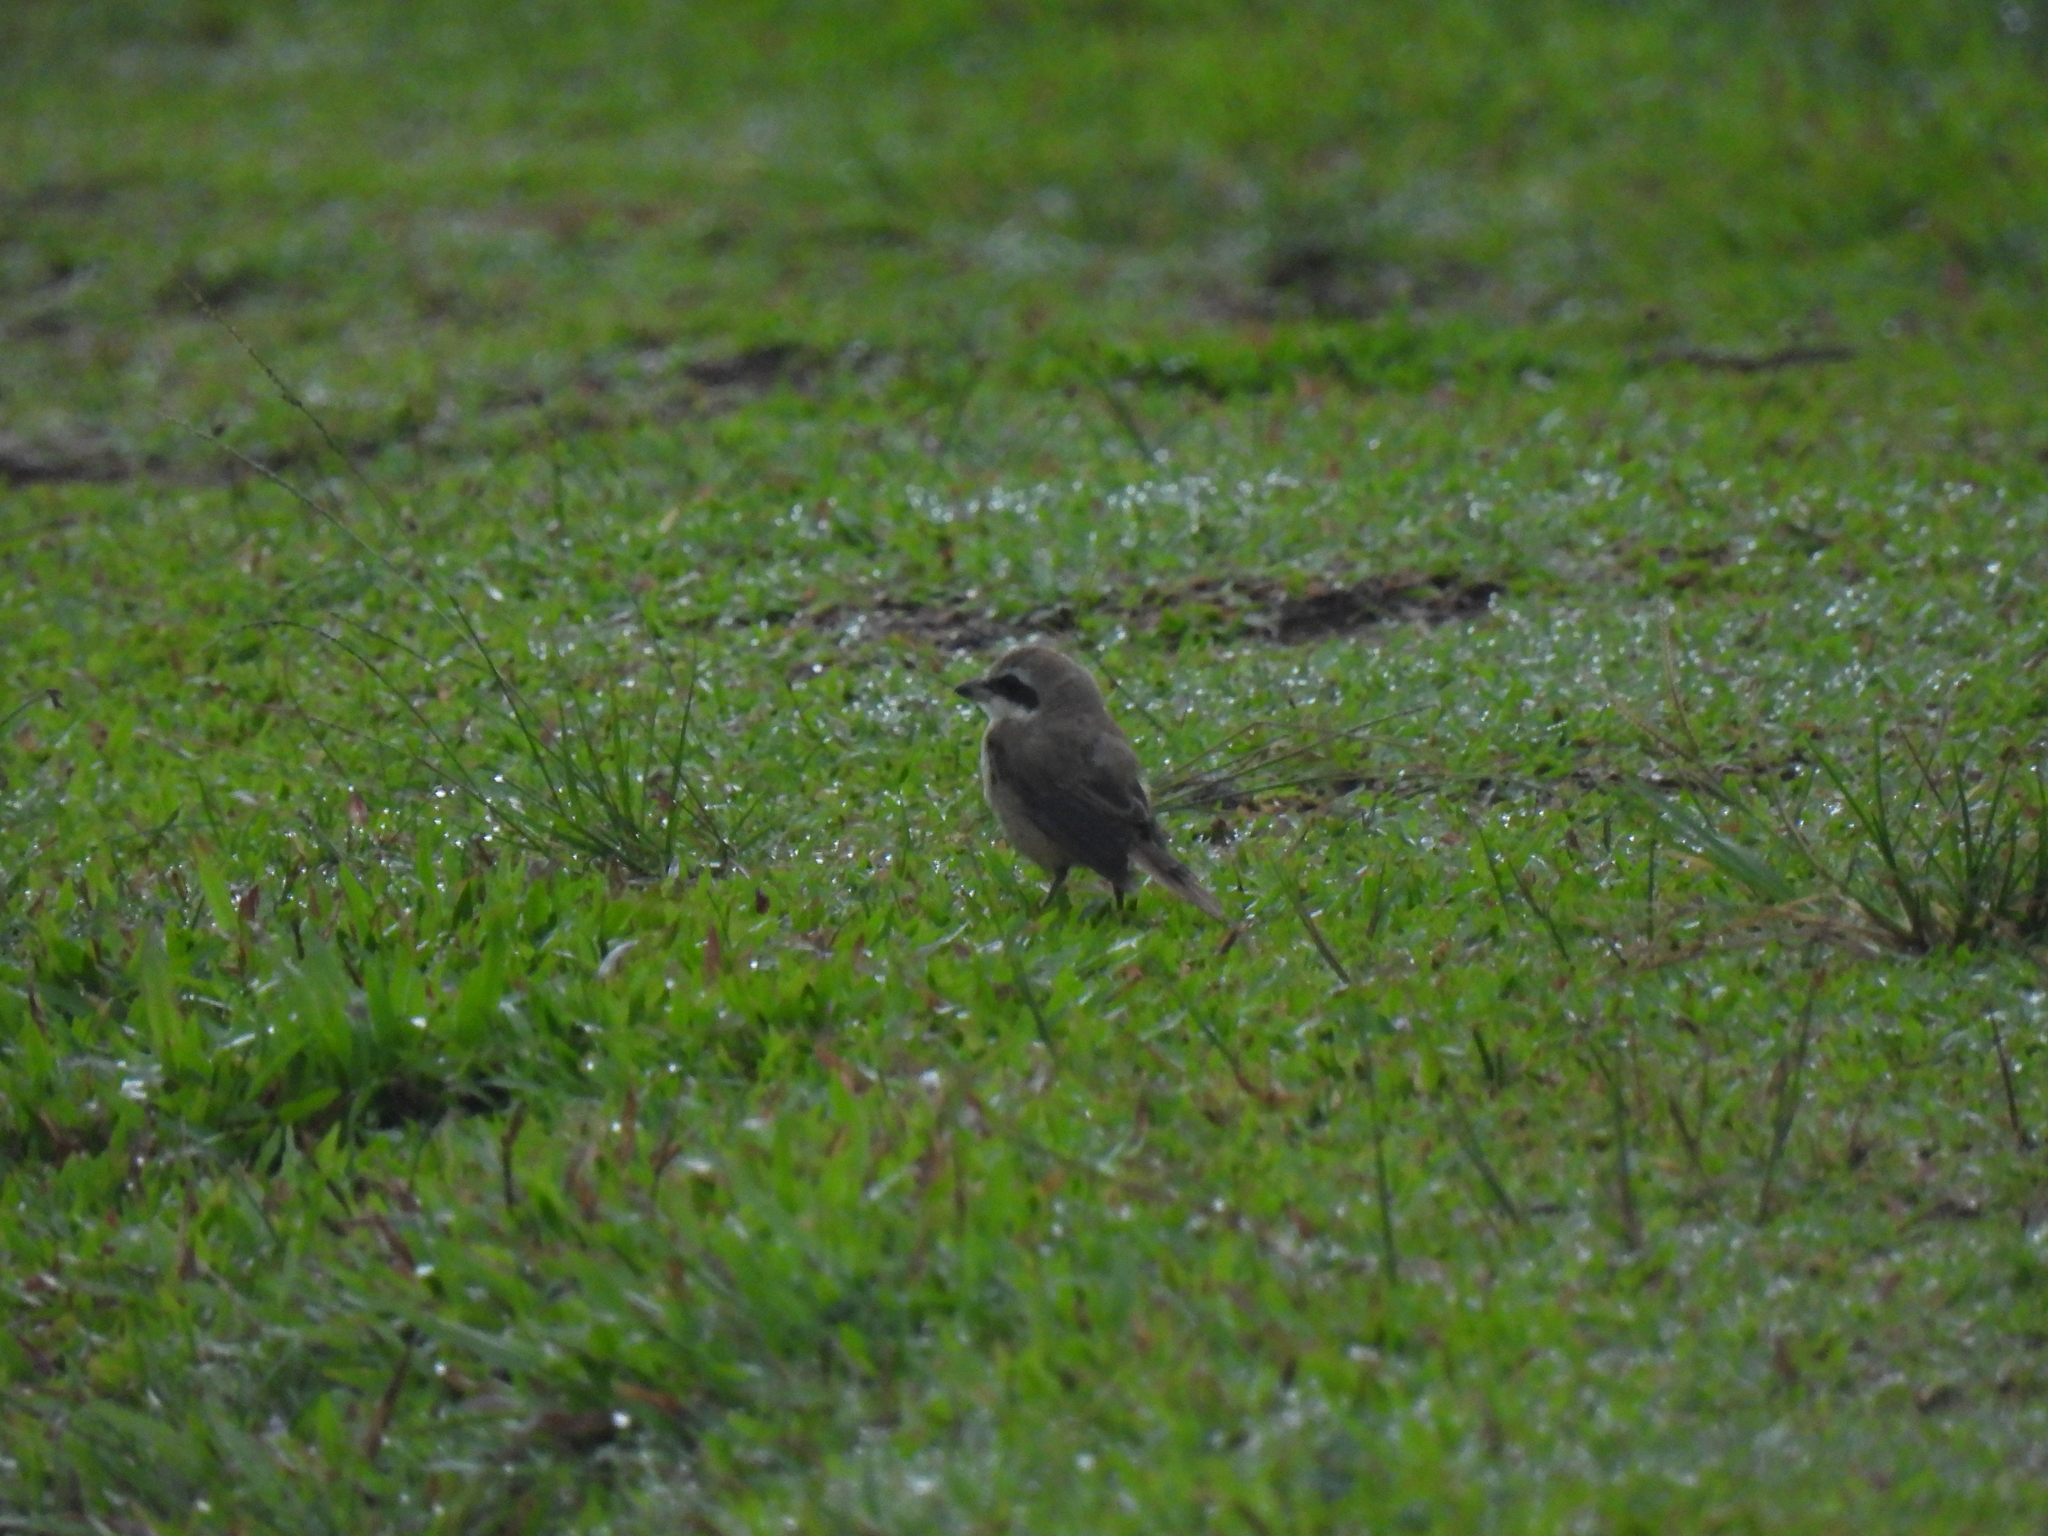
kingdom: Animalia
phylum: Chordata
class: Aves
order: Passeriformes
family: Laniidae
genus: Lanius
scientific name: Lanius cristatus
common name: Brown shrike
